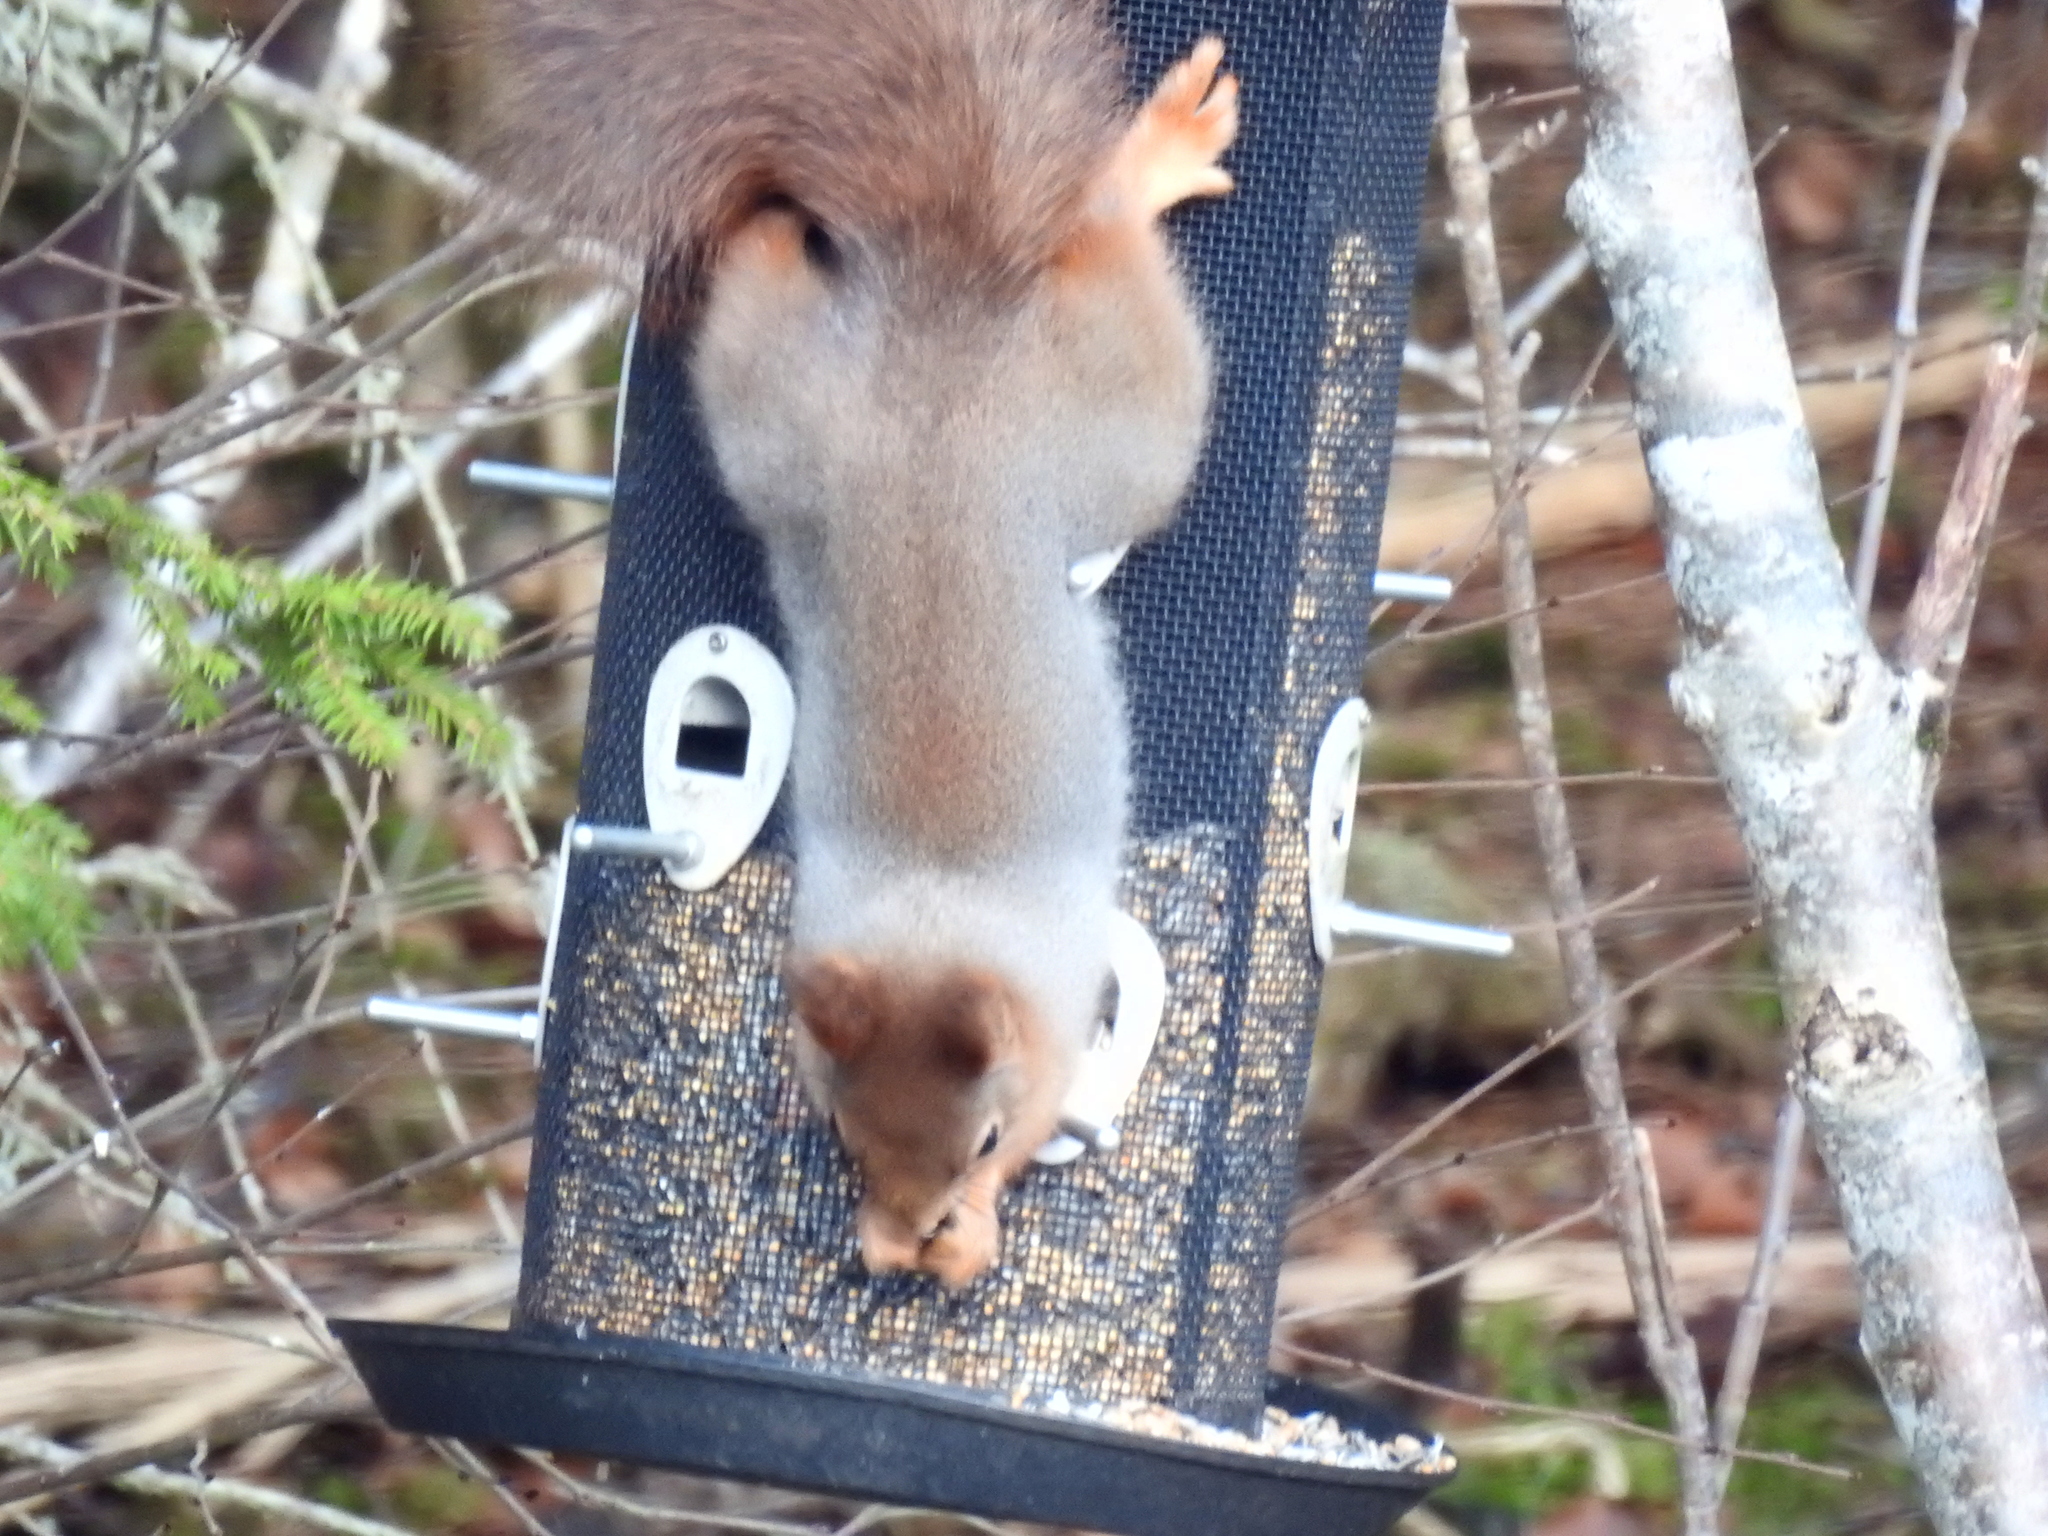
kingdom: Animalia
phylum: Chordata
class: Mammalia
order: Rodentia
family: Sciuridae
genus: Sciurus
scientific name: Sciurus vulgaris
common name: Eurasian red squirrel
